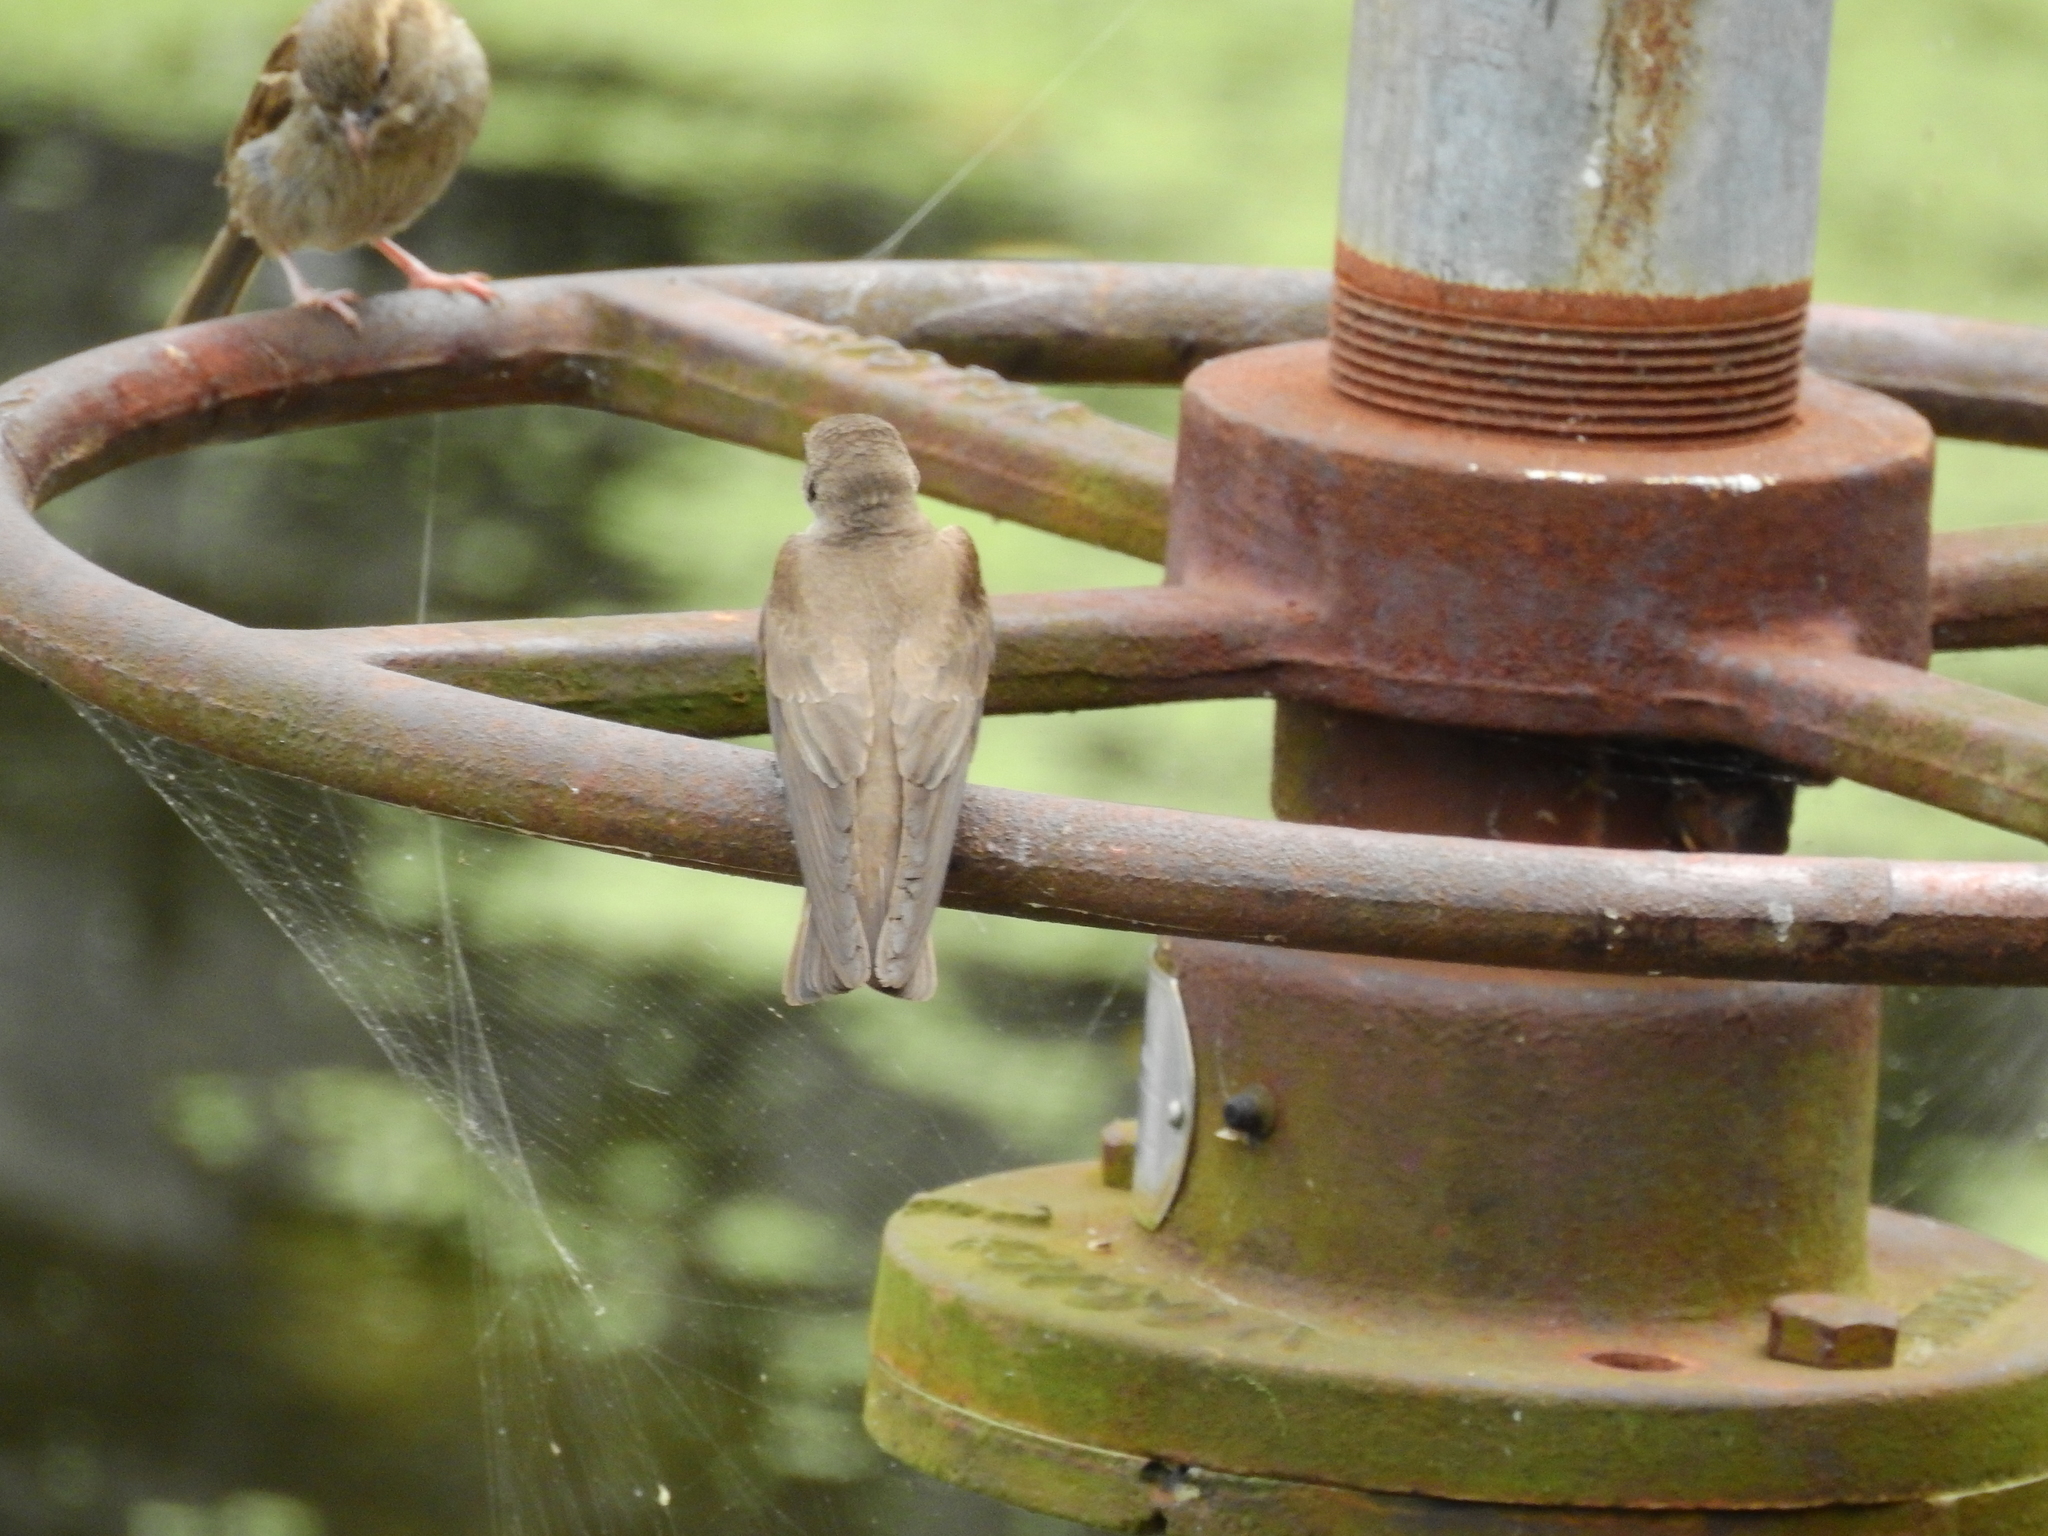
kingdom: Animalia
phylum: Chordata
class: Aves
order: Passeriformes
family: Hirundinidae
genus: Stelgidopteryx
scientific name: Stelgidopteryx serripennis
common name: Northern rough-winged swallow
